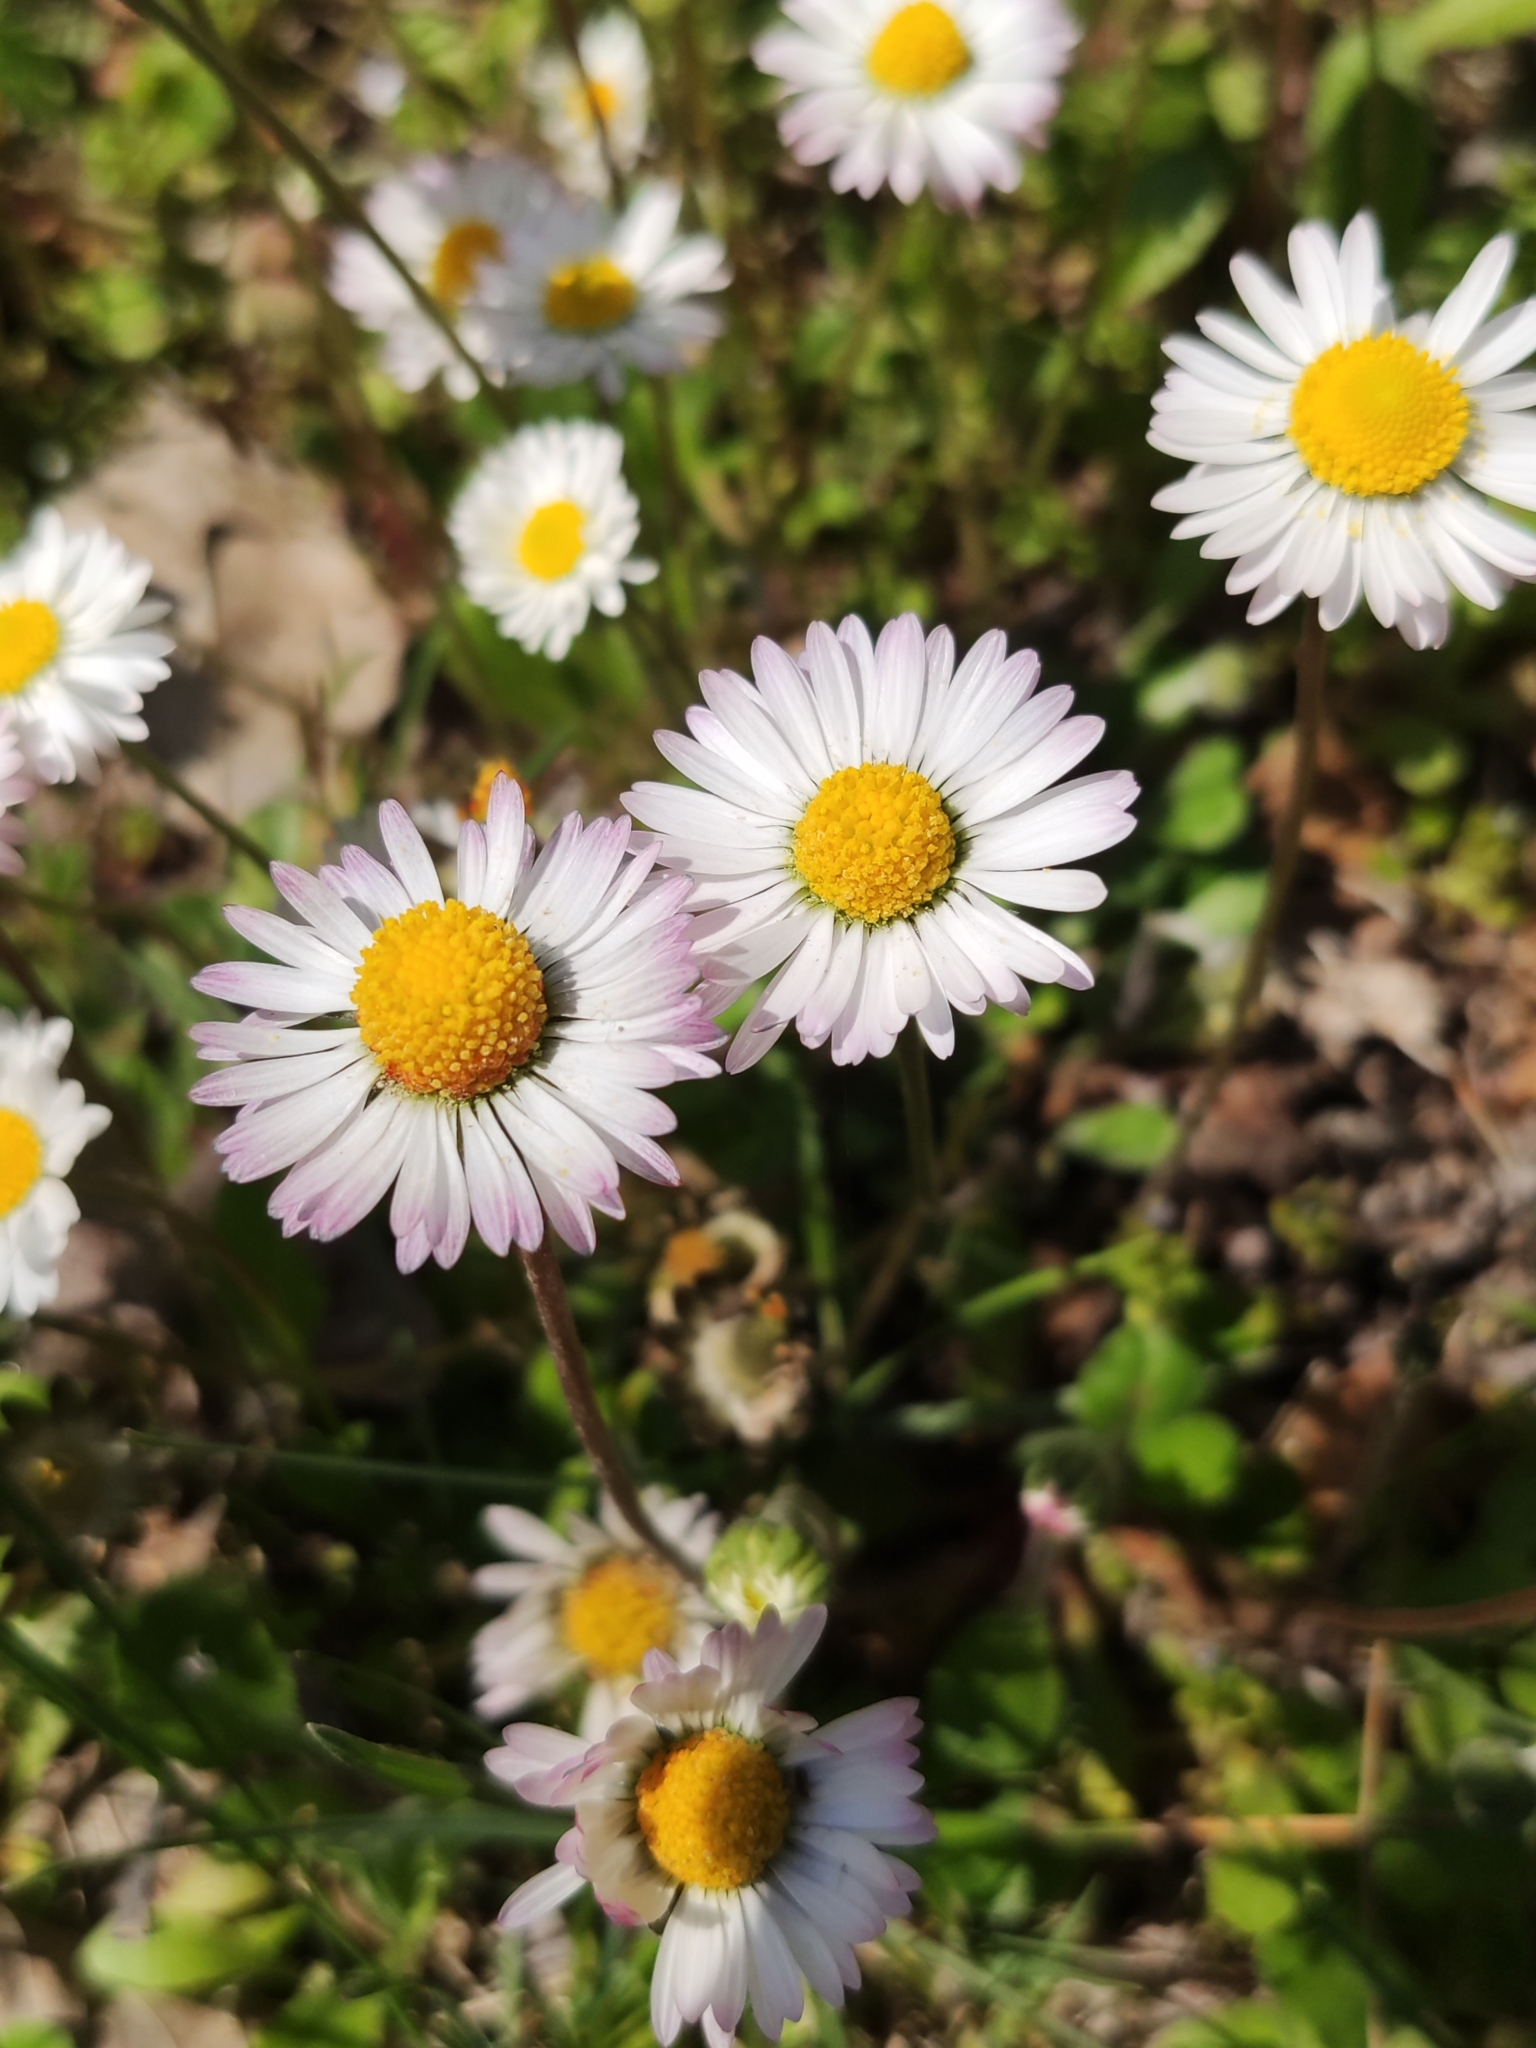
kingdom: Plantae
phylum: Tracheophyta
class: Magnoliopsida
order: Asterales
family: Asteraceae
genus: Bellis
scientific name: Bellis perennis
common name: Lawndaisy
